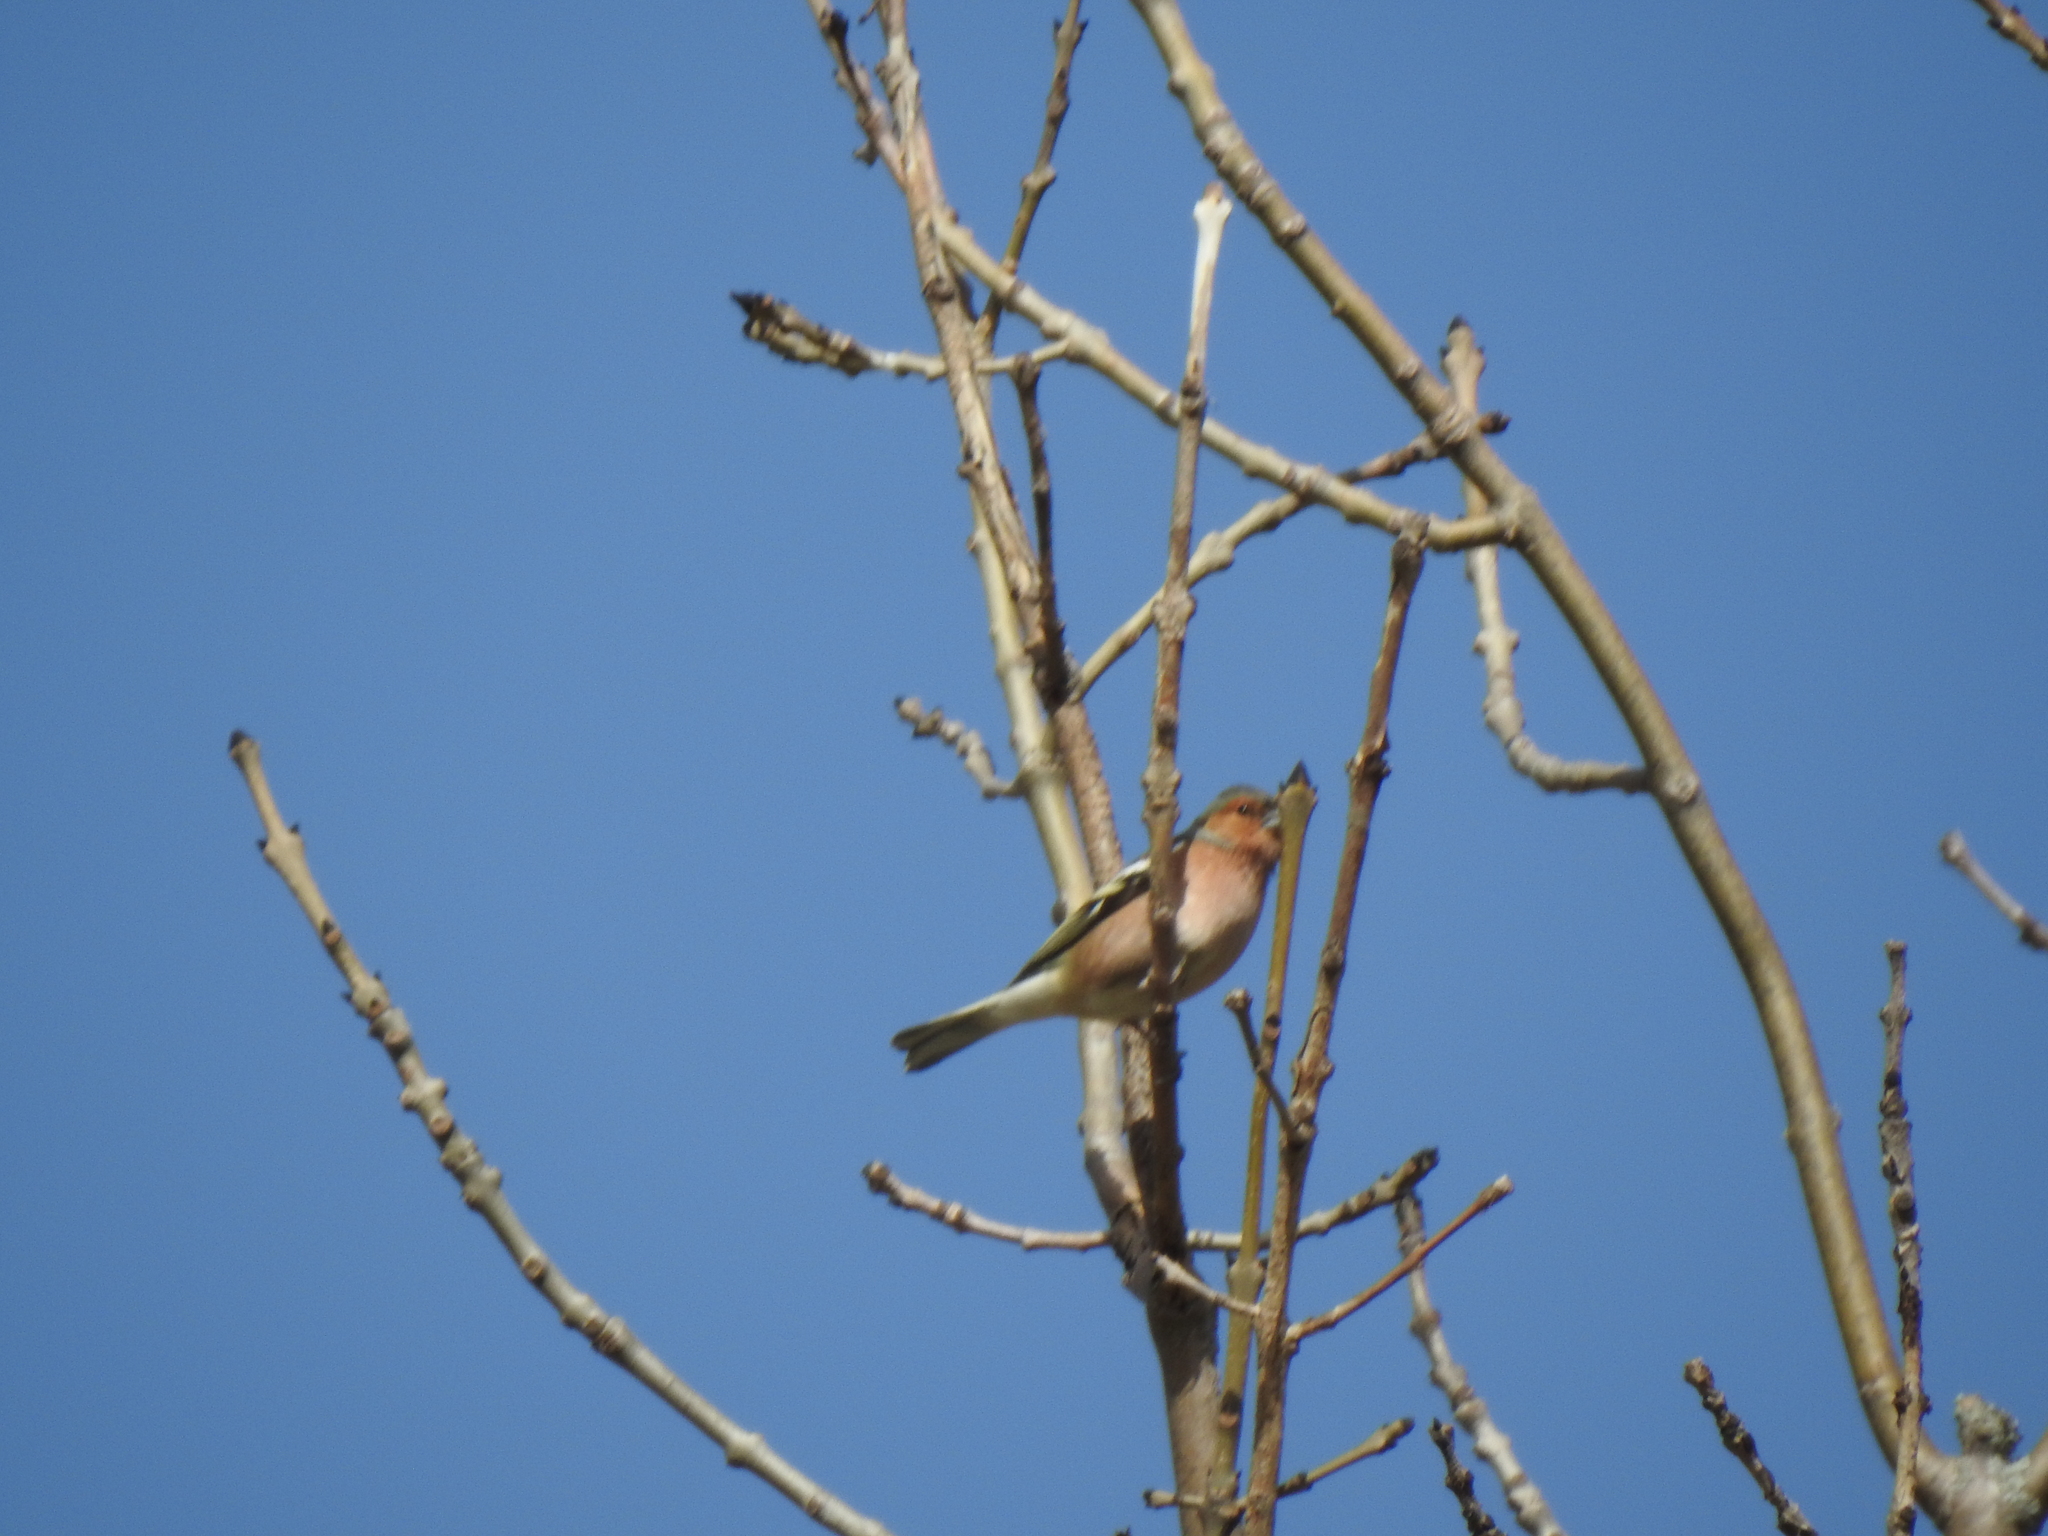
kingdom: Animalia
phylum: Chordata
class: Aves
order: Passeriformes
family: Fringillidae
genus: Fringilla
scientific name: Fringilla coelebs
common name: Common chaffinch
